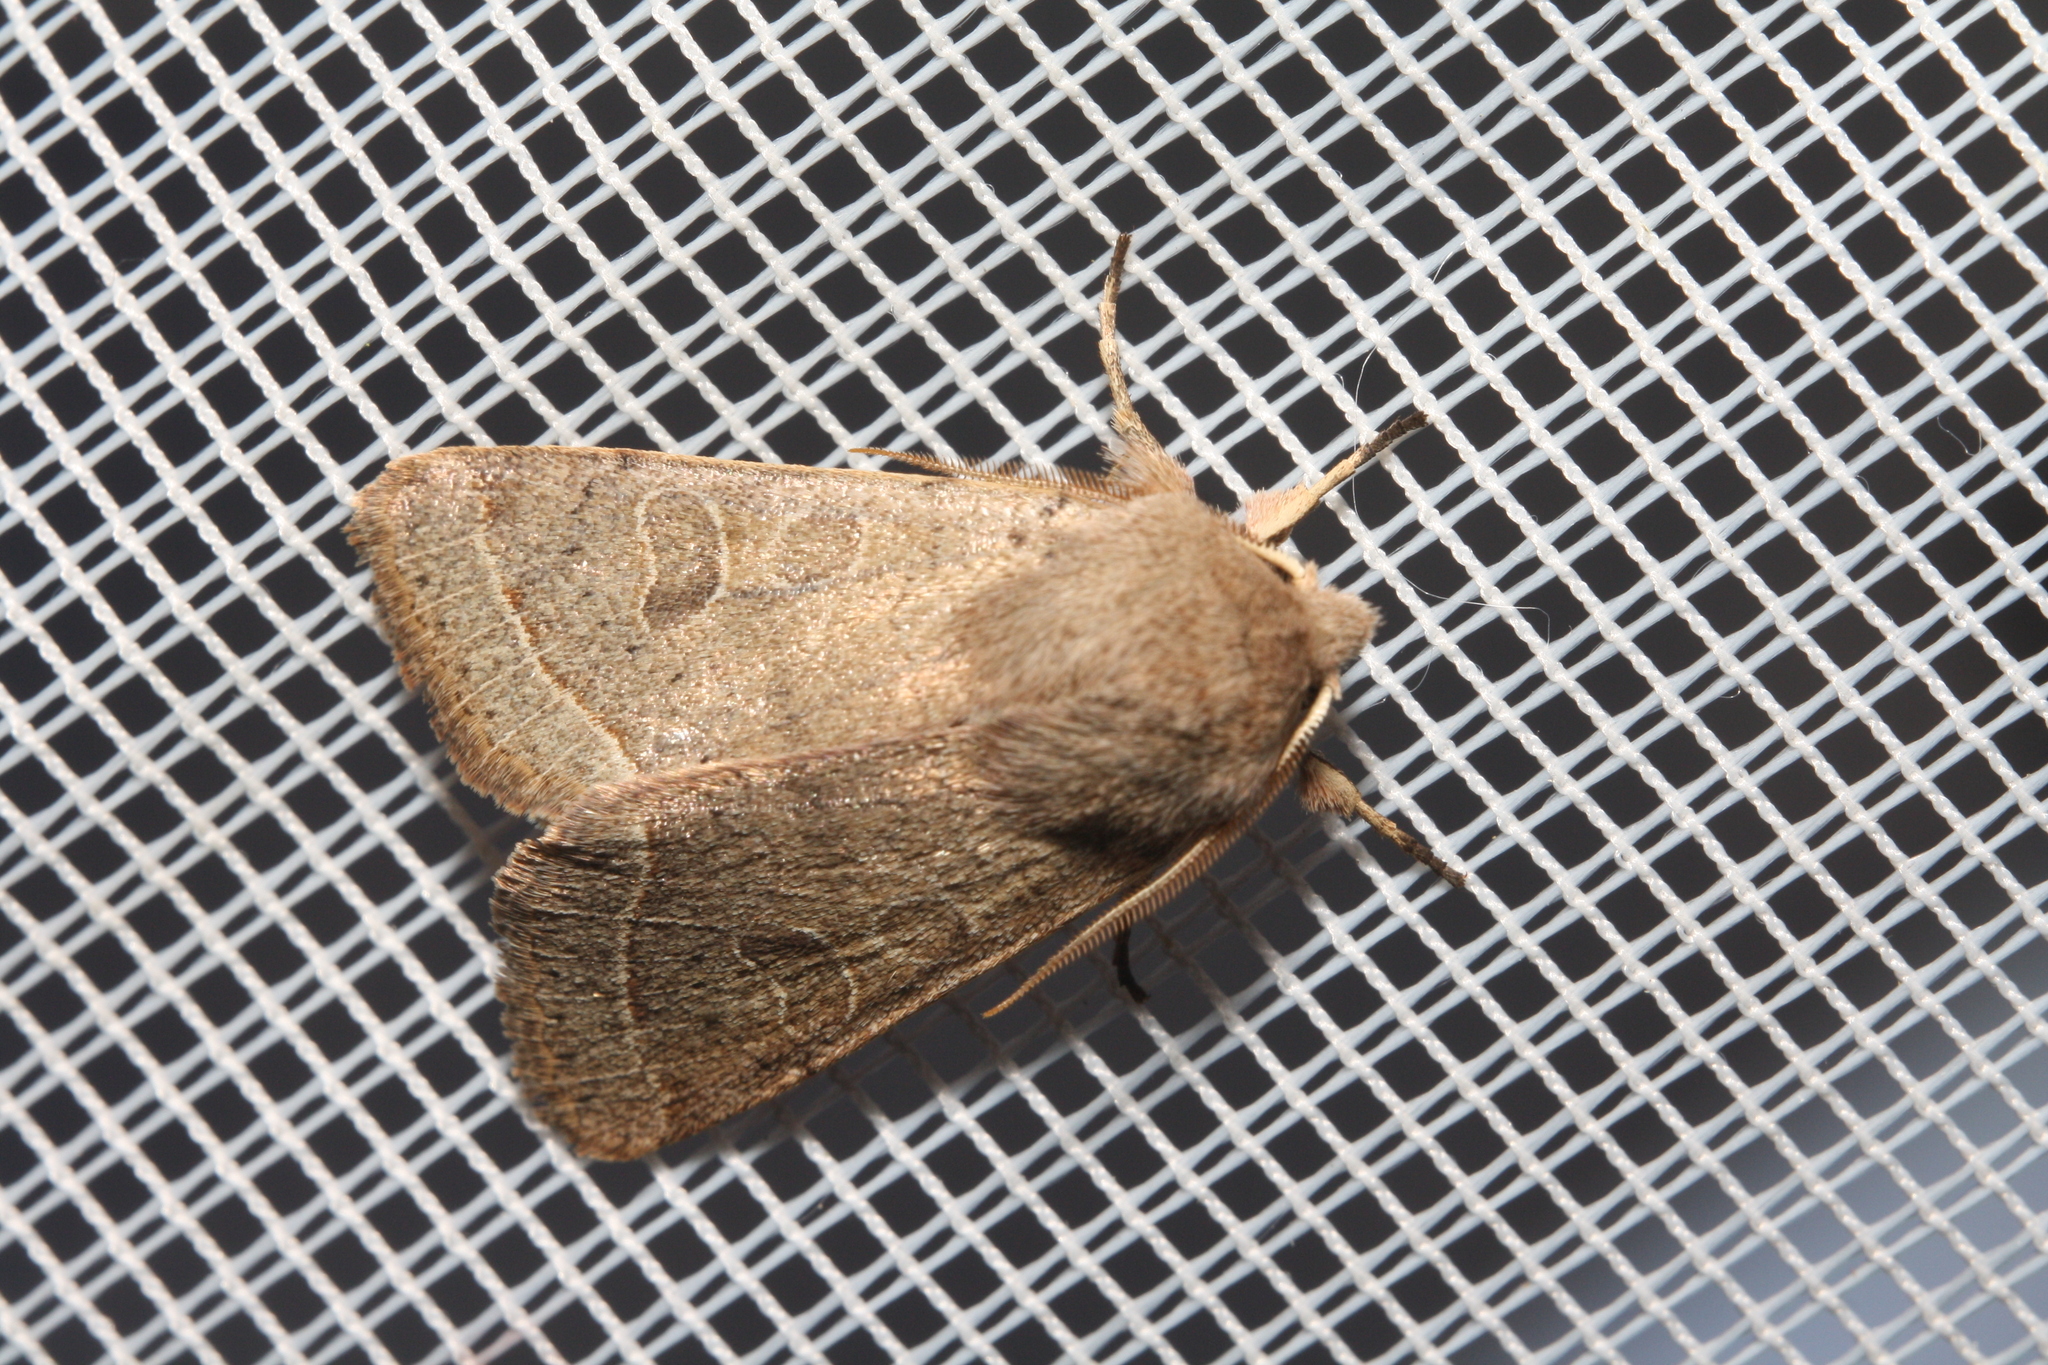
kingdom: Animalia
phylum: Arthropoda
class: Insecta
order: Lepidoptera
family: Noctuidae
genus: Orthosia
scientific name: Orthosia cerasi
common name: Common quaker
